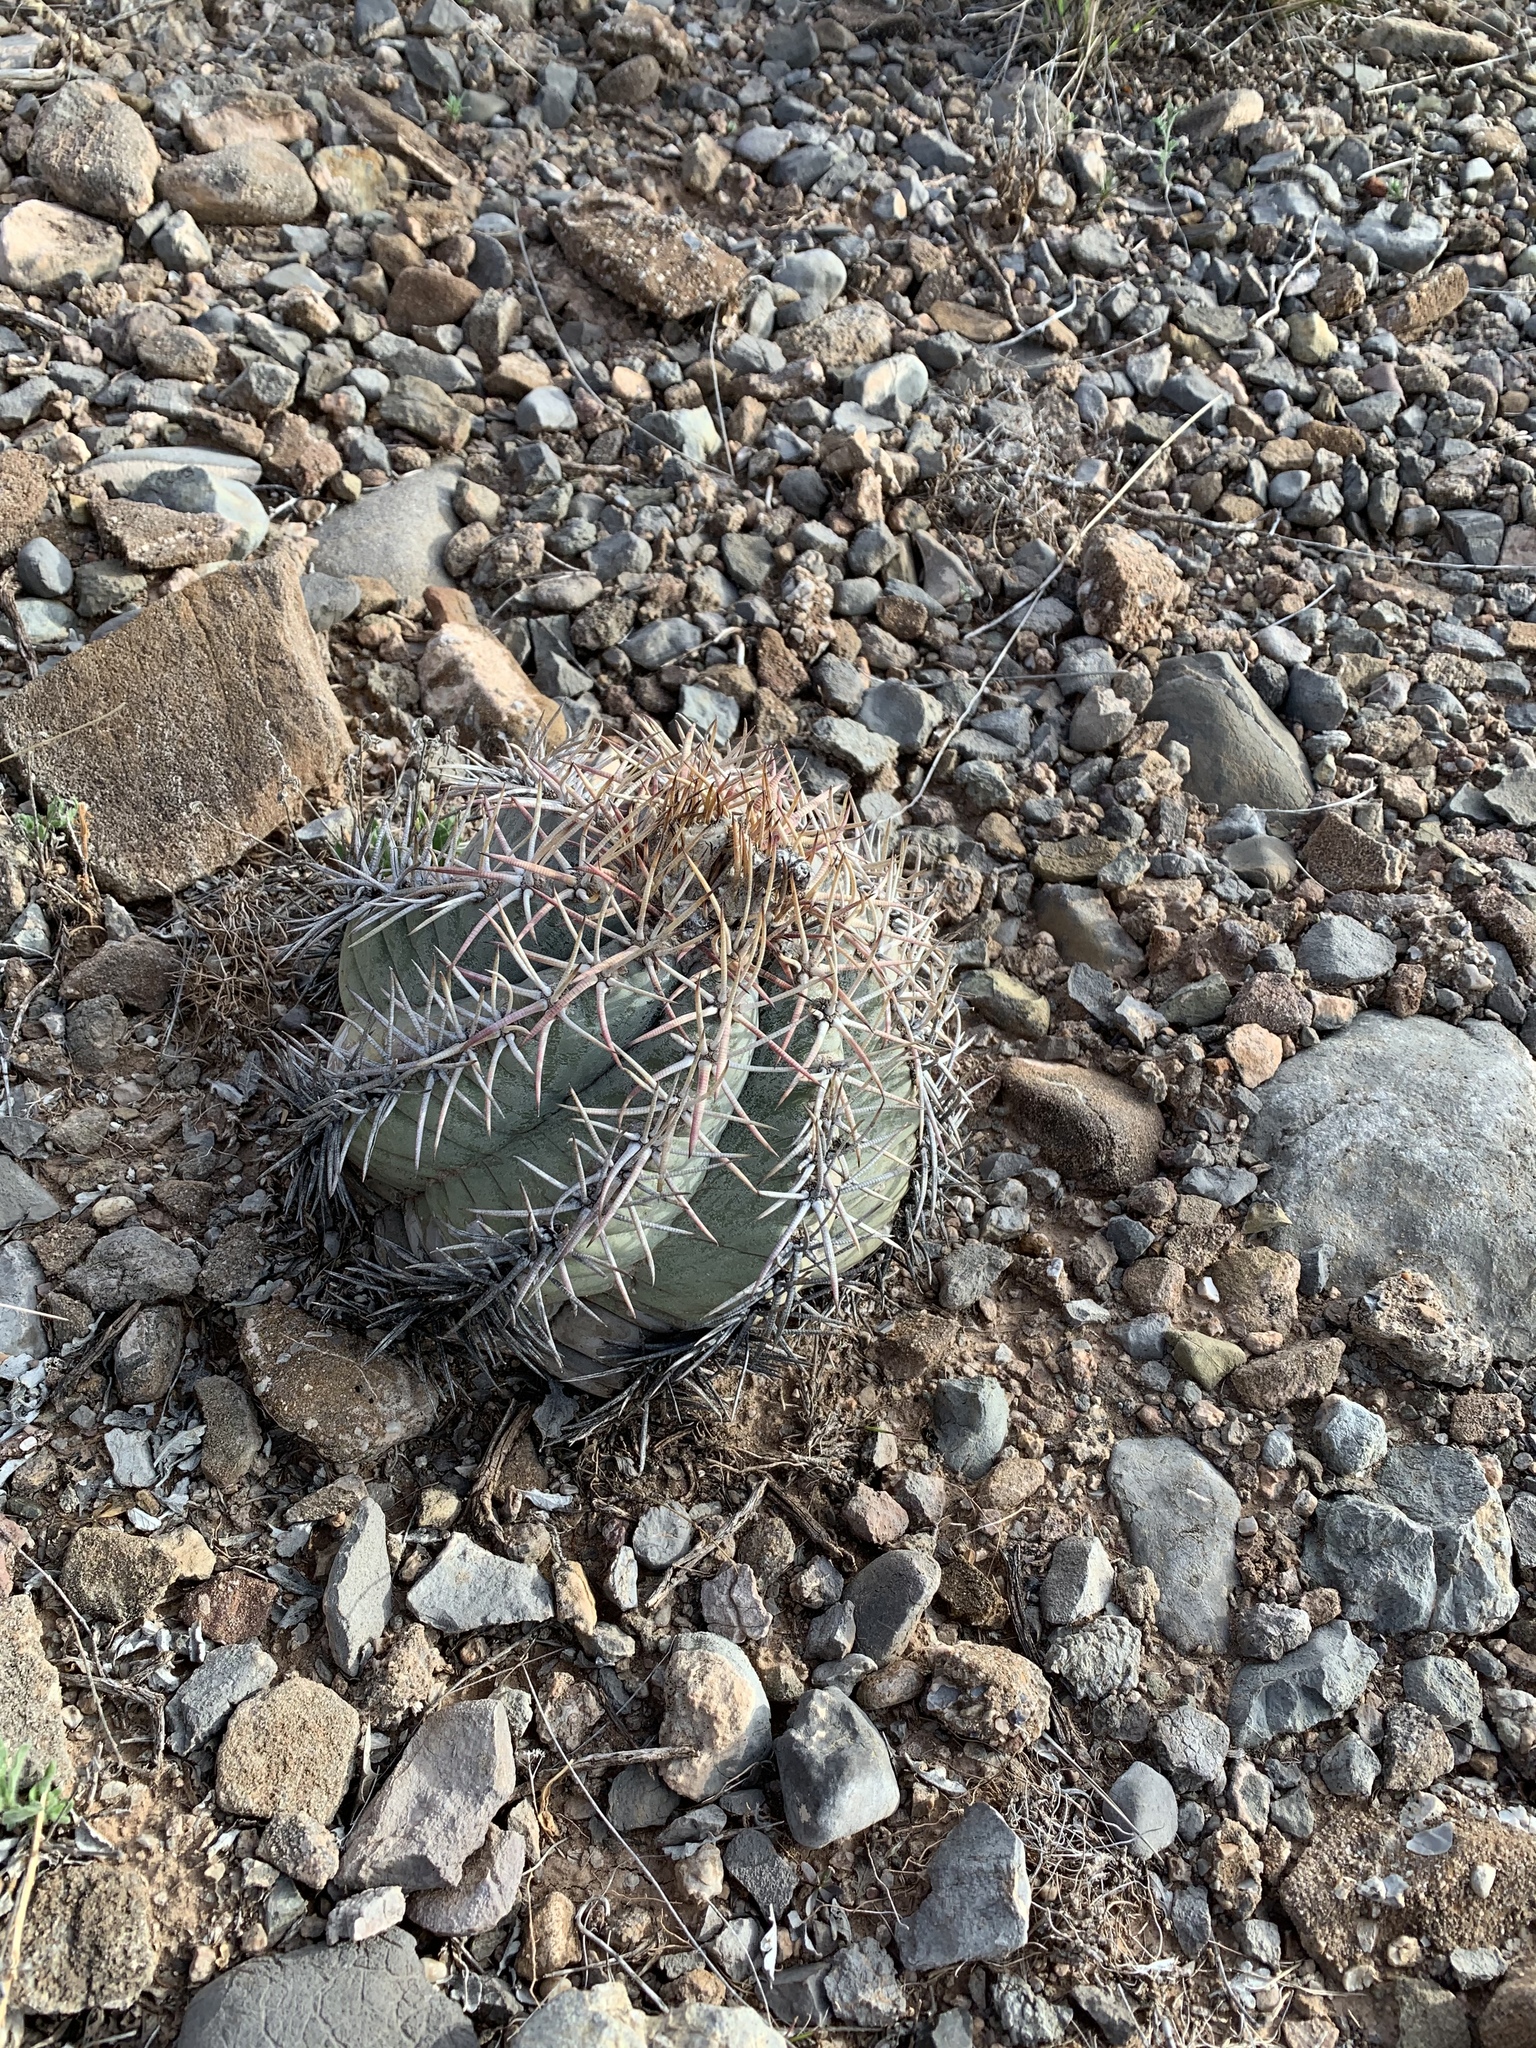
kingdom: Plantae
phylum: Tracheophyta
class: Magnoliopsida
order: Caryophyllales
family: Cactaceae
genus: Echinocactus
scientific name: Echinocactus horizonthalonius
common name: Devilshead
